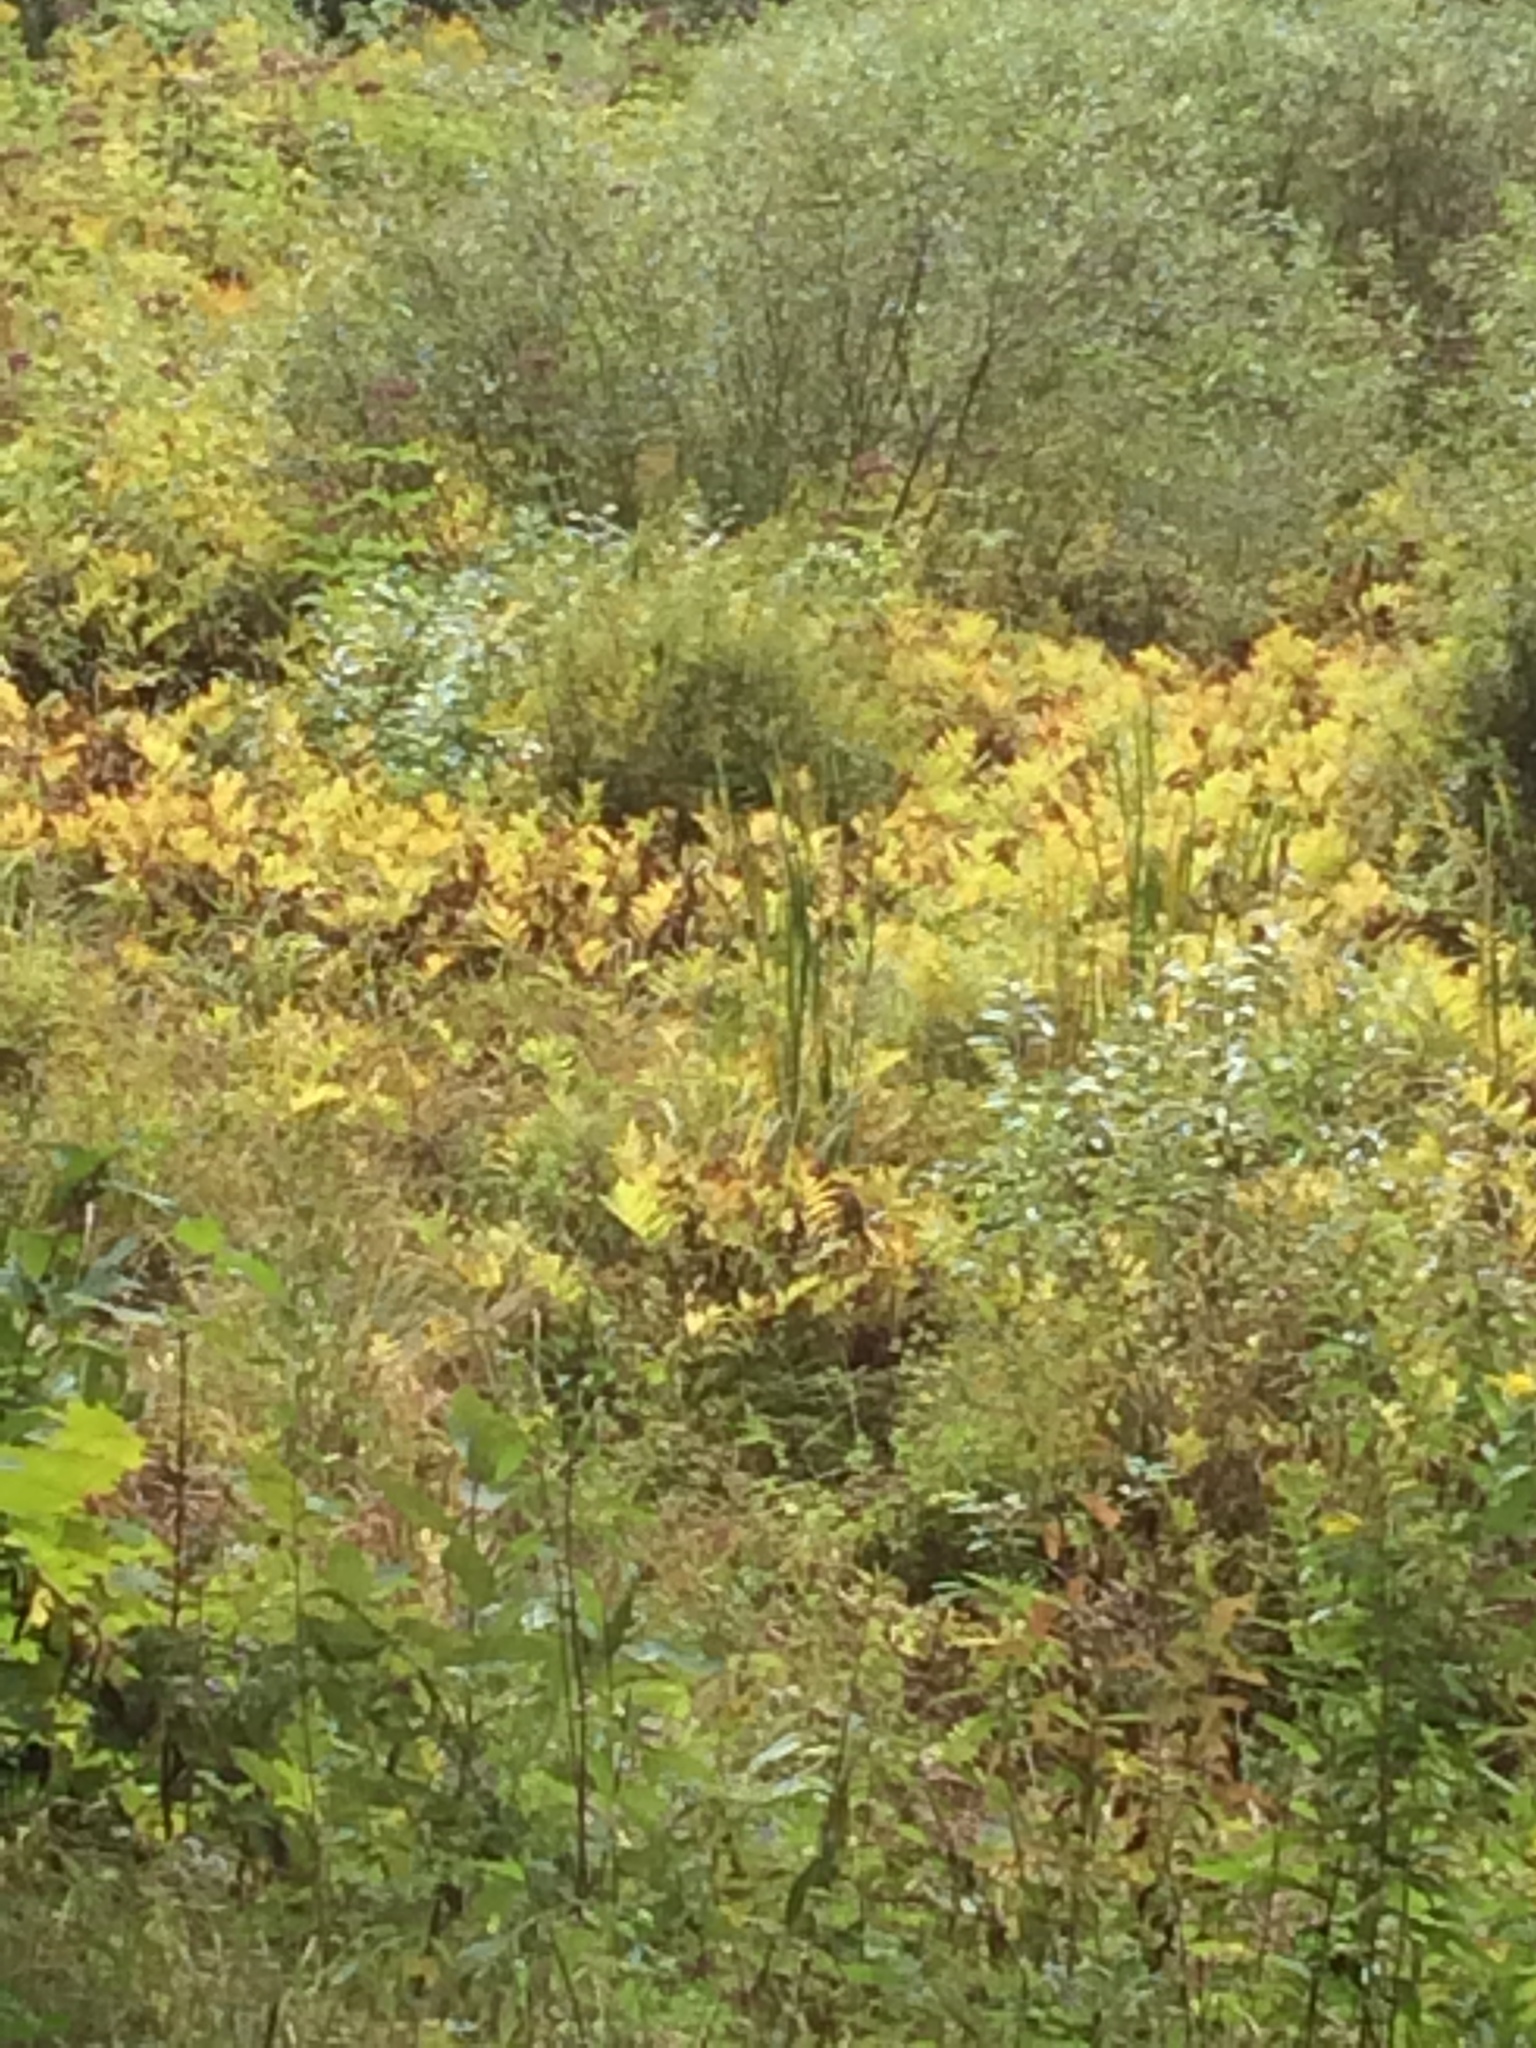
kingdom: Plantae
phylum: Tracheophyta
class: Polypodiopsida
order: Polypodiales
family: Onocleaceae
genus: Onoclea
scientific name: Onoclea sensibilis
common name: Sensitive fern
